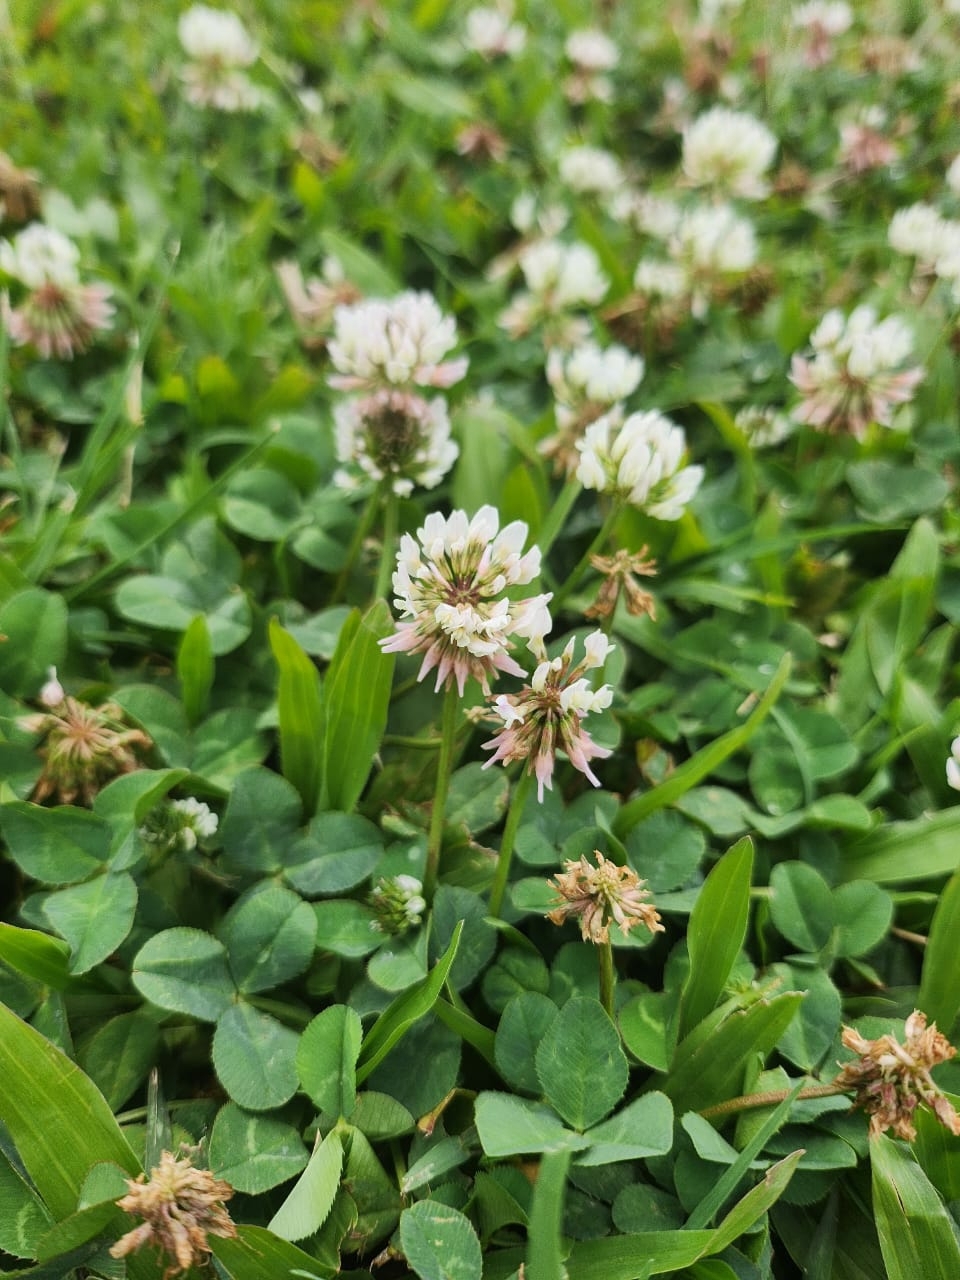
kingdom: Plantae
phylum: Tracheophyta
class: Magnoliopsida
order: Fabales
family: Fabaceae
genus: Trifolium
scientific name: Trifolium repens
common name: White clover
